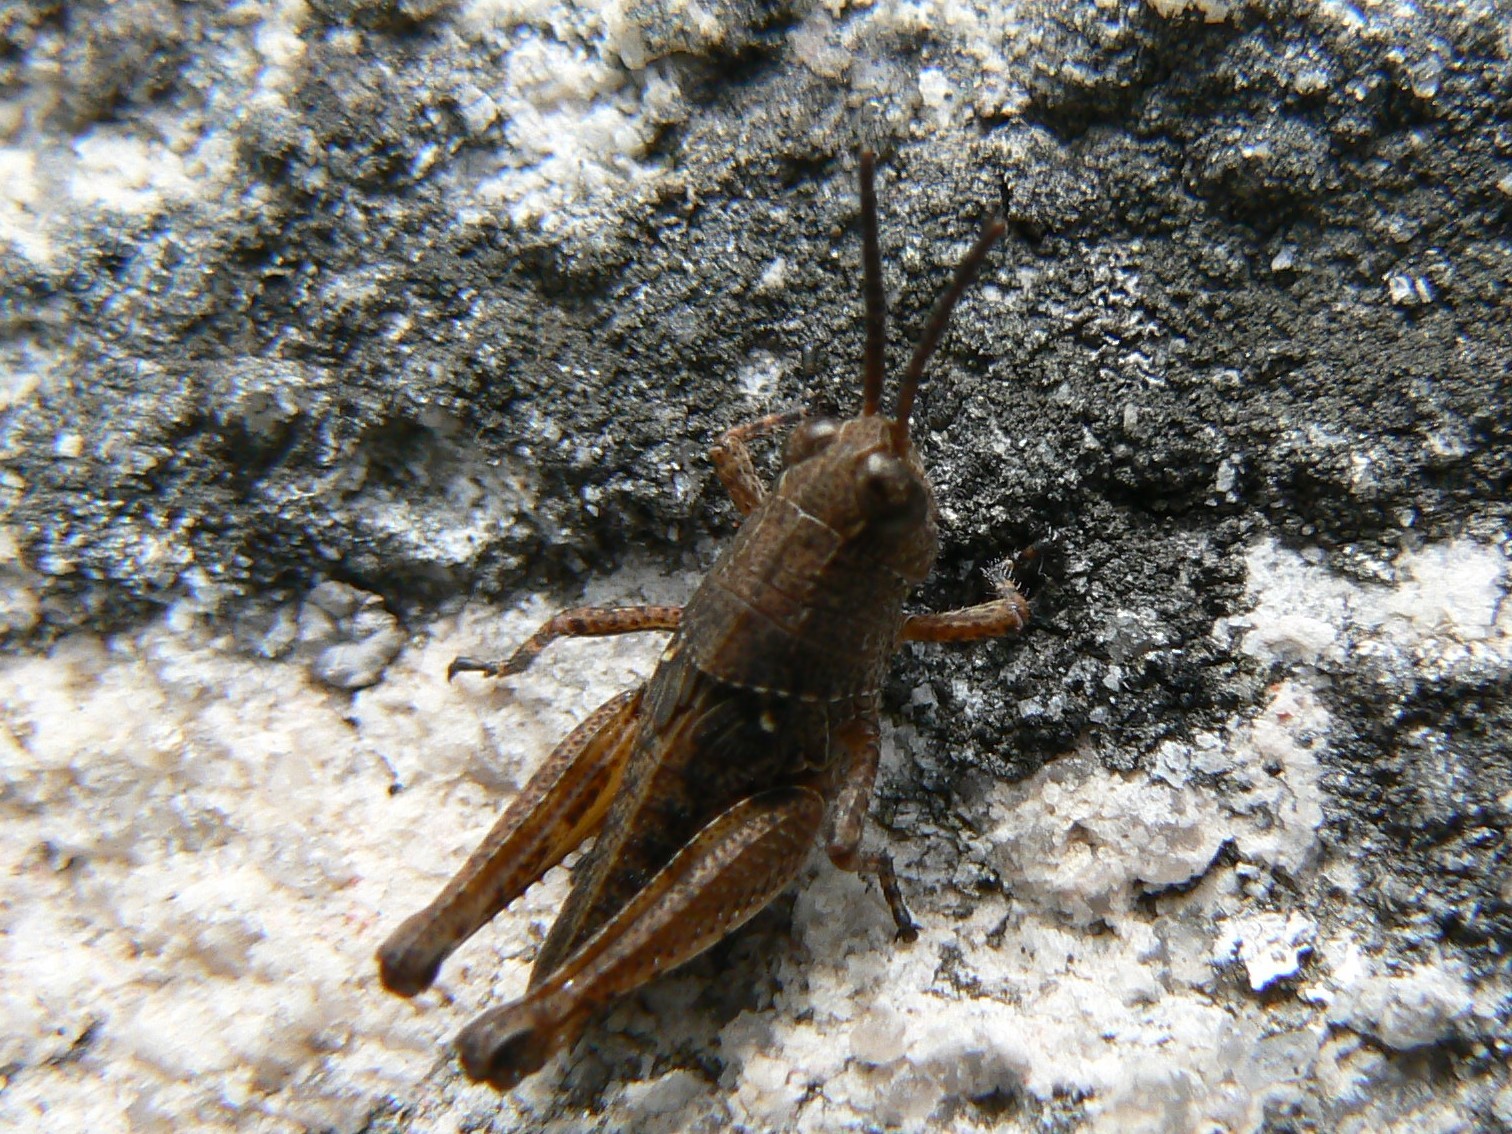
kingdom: Animalia
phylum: Arthropoda
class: Insecta
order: Orthoptera
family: Acrididae
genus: Phaulacridium
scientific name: Phaulacridium vittatum
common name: Wingless grasshopper
